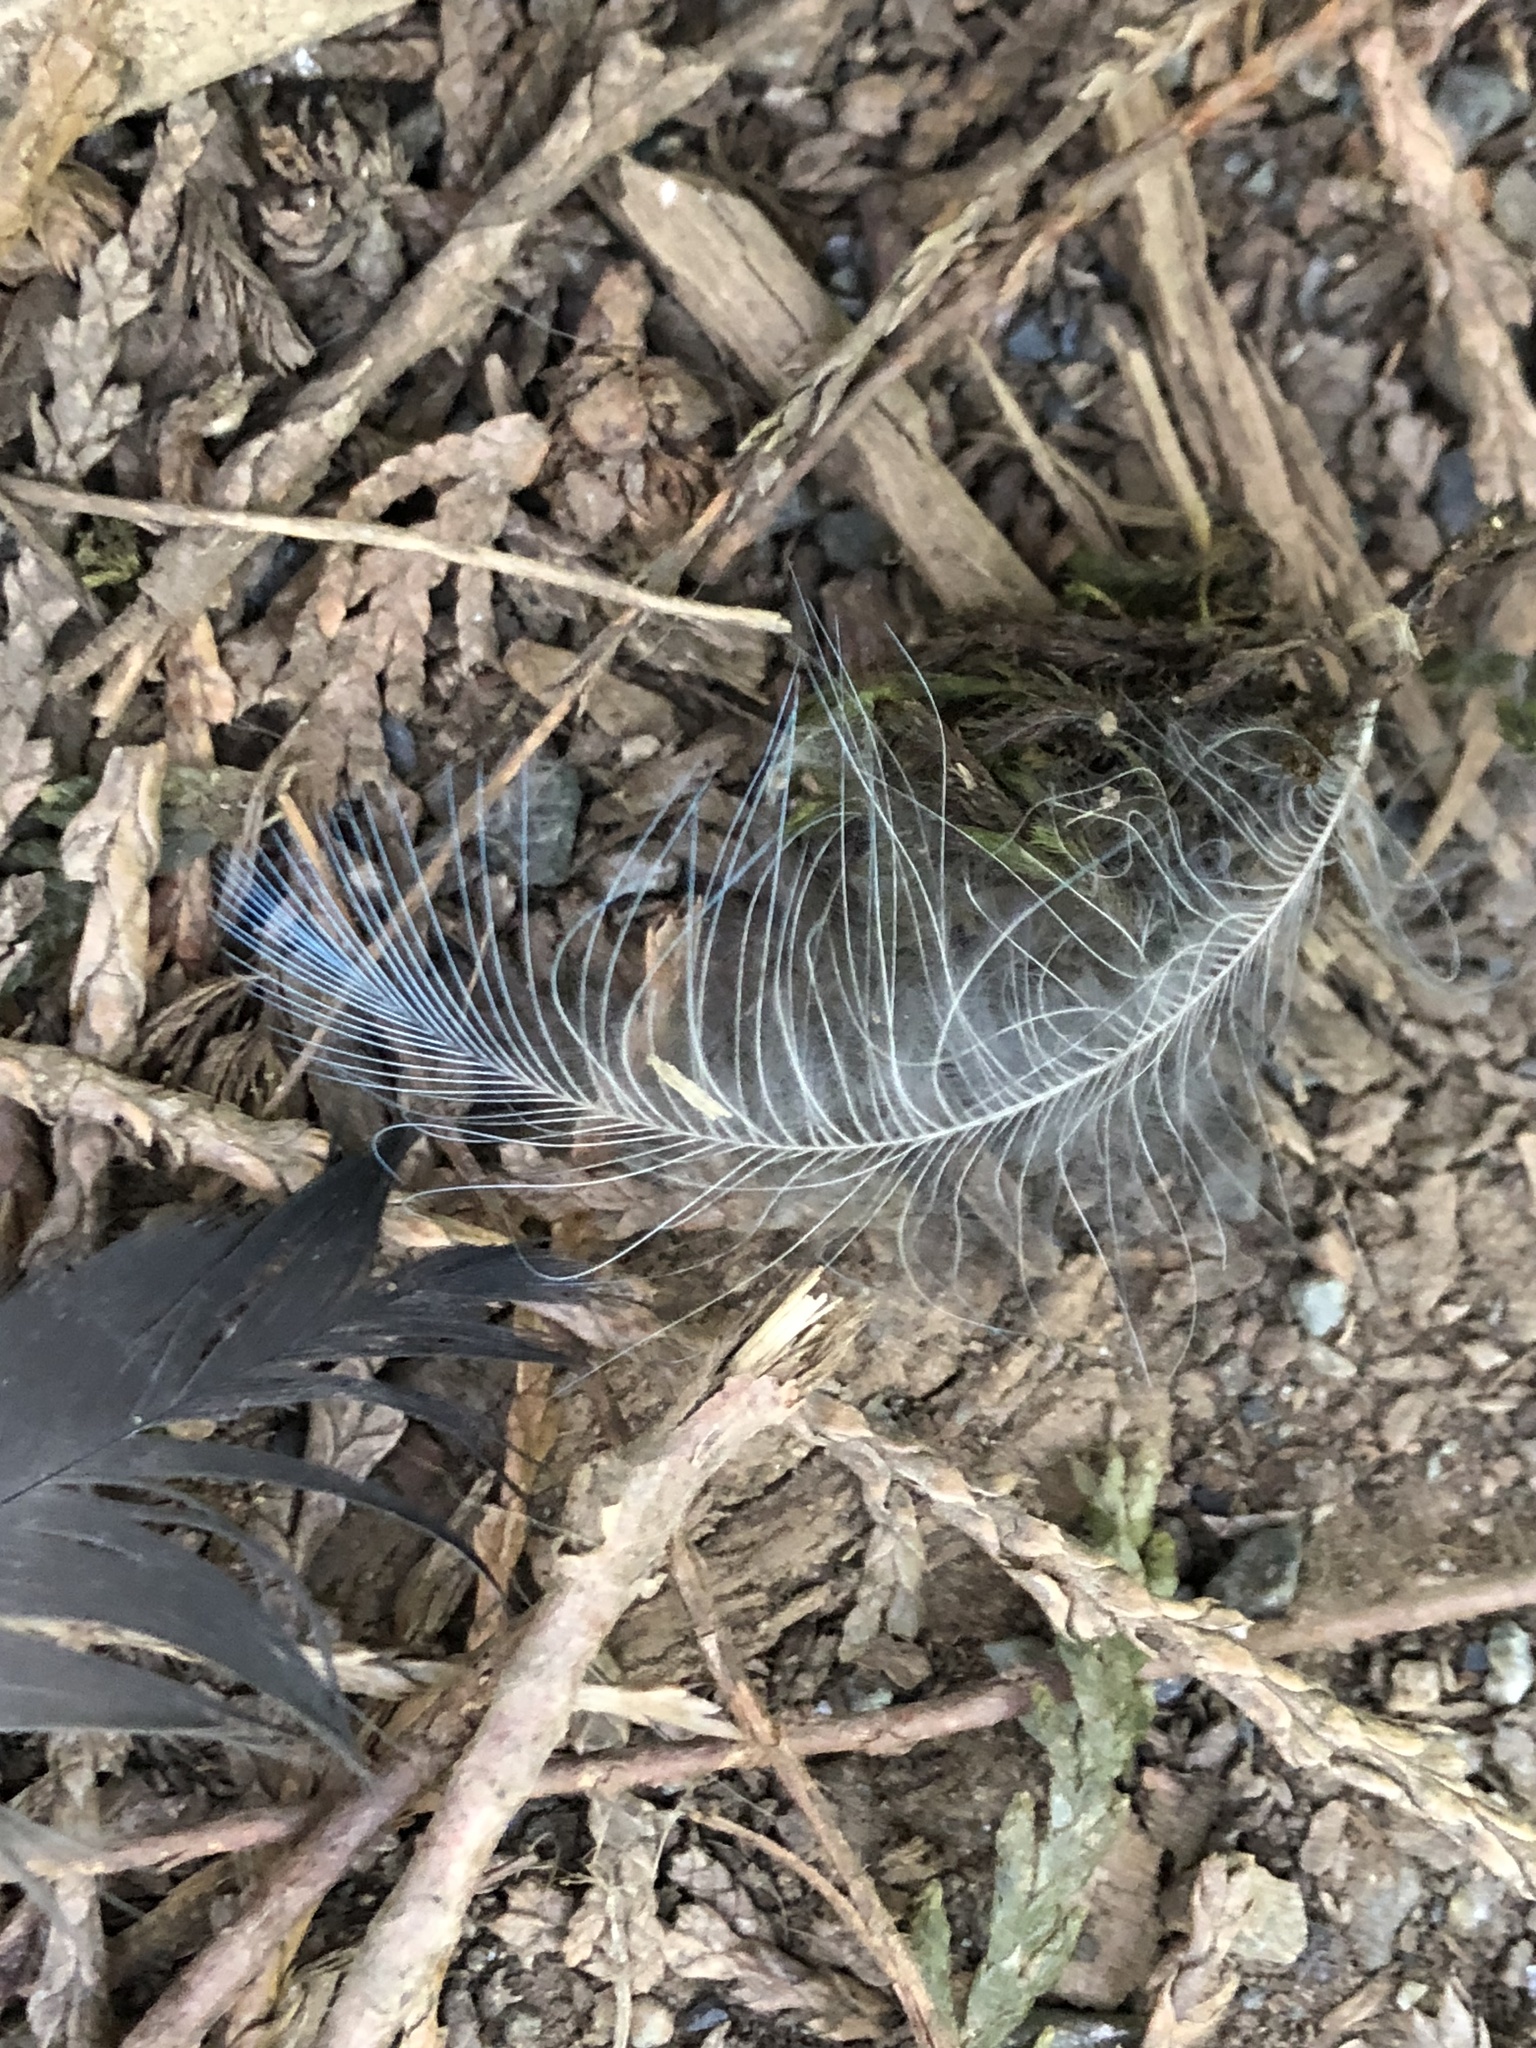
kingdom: Animalia
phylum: Chordata
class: Aves
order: Passeriformes
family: Corvidae
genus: Cyanocitta
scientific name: Cyanocitta stelleri
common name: Steller's jay
